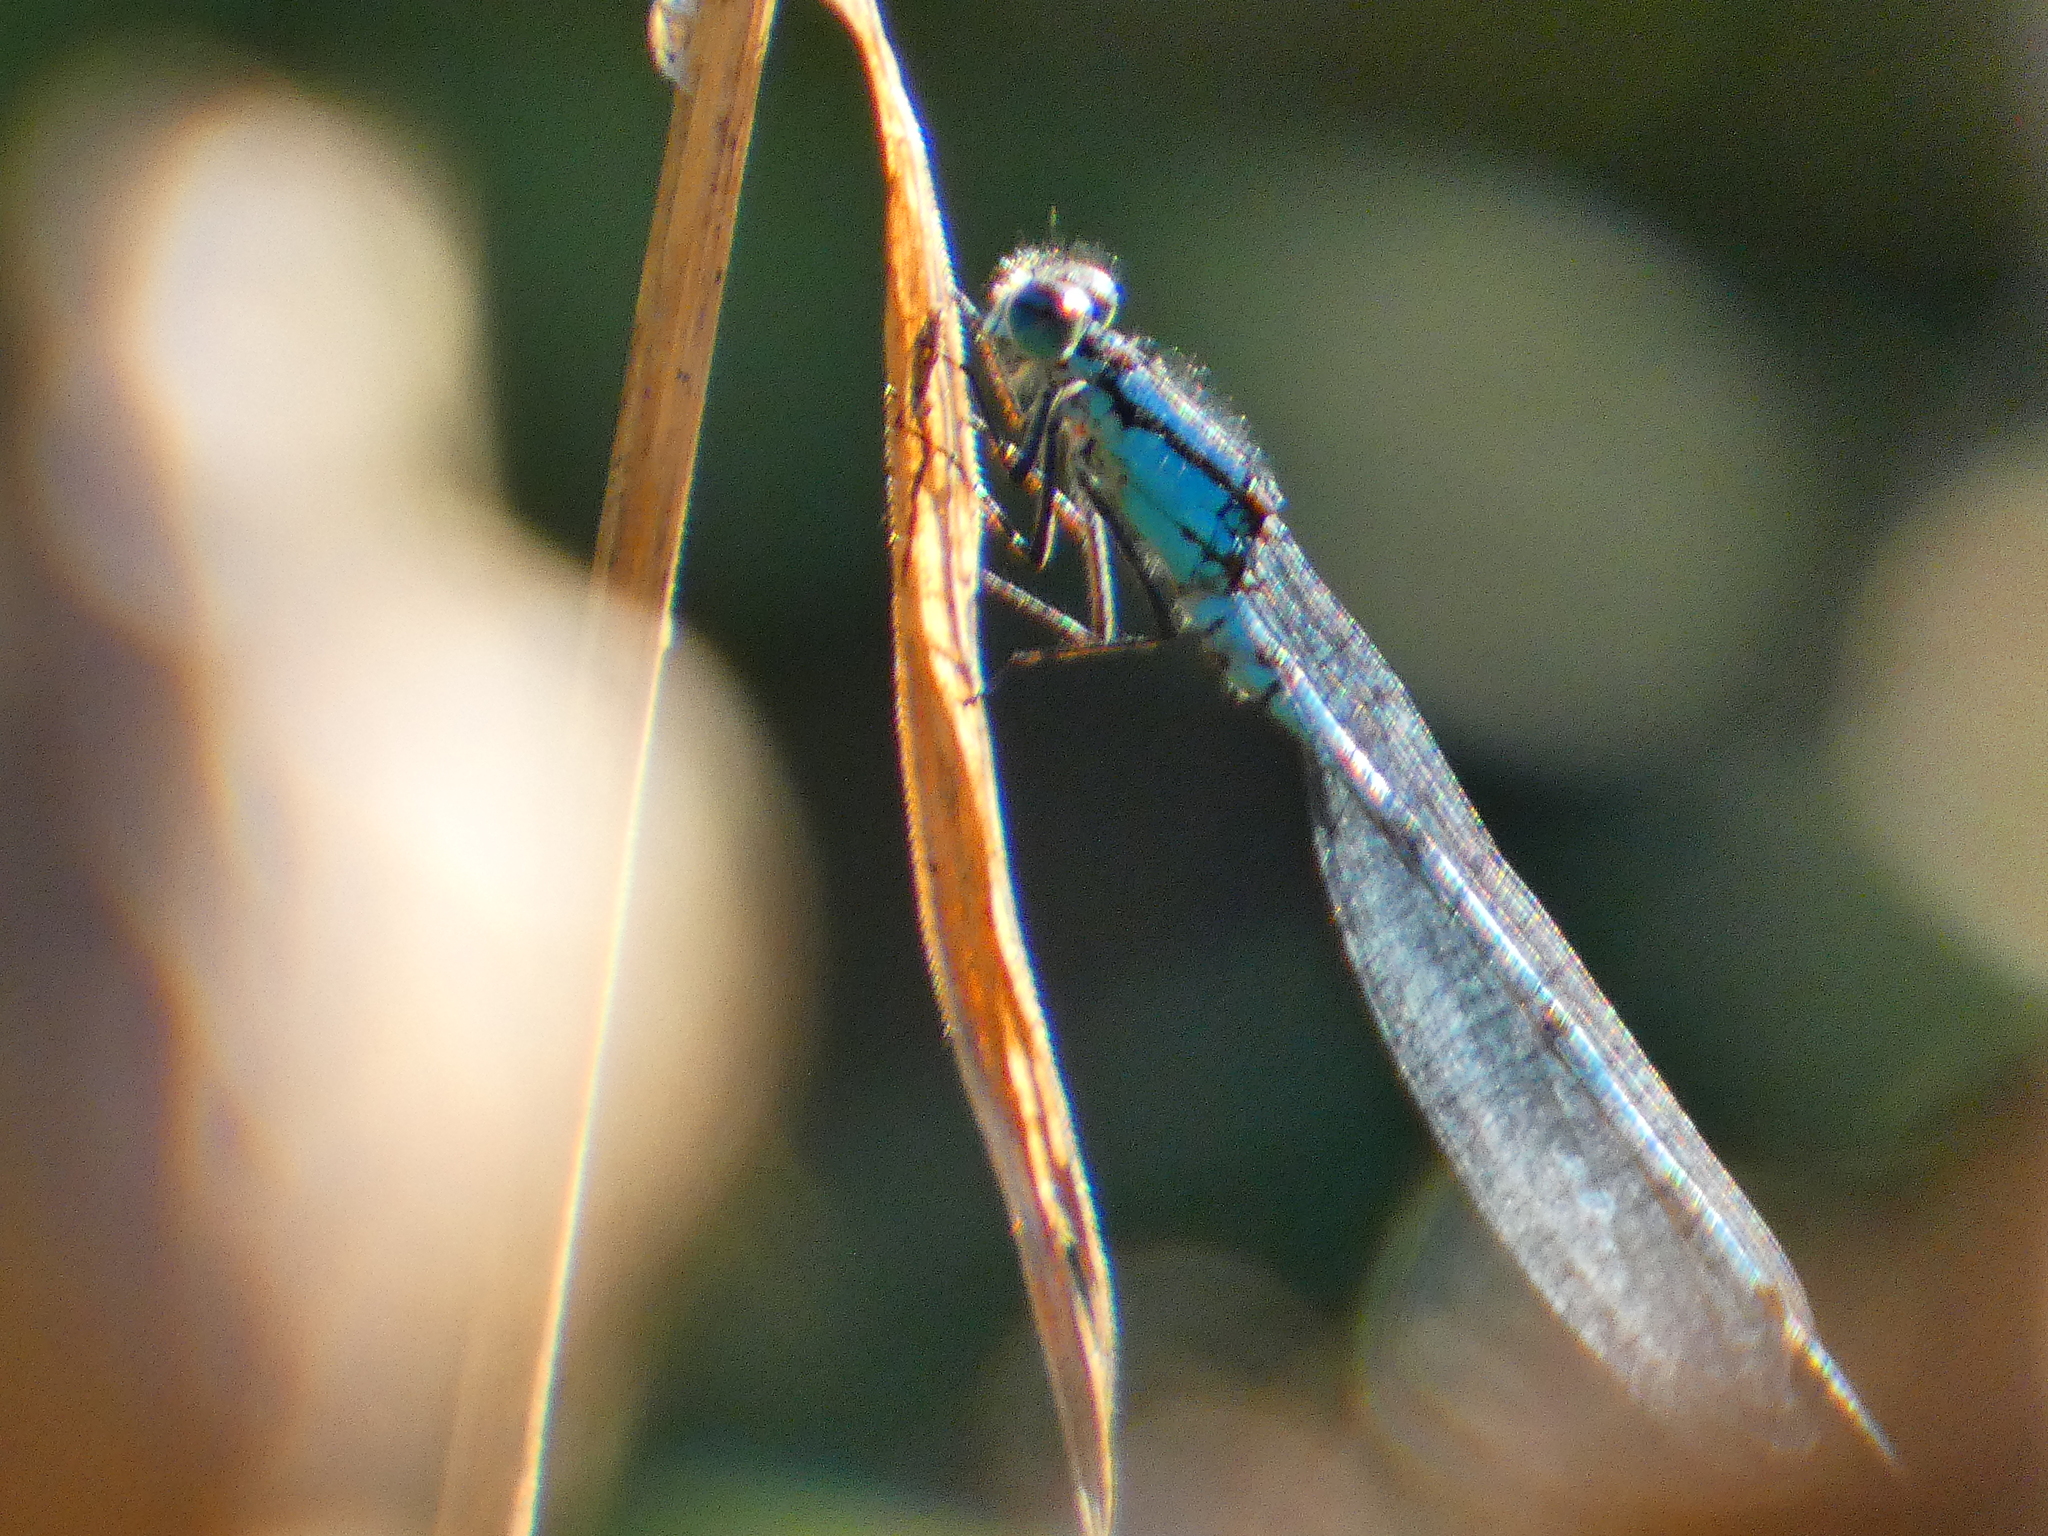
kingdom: Animalia
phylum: Arthropoda
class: Insecta
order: Odonata
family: Coenagrionidae
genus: Enallagma
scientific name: Enallagma cyathigerum
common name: Common blue damselfly
